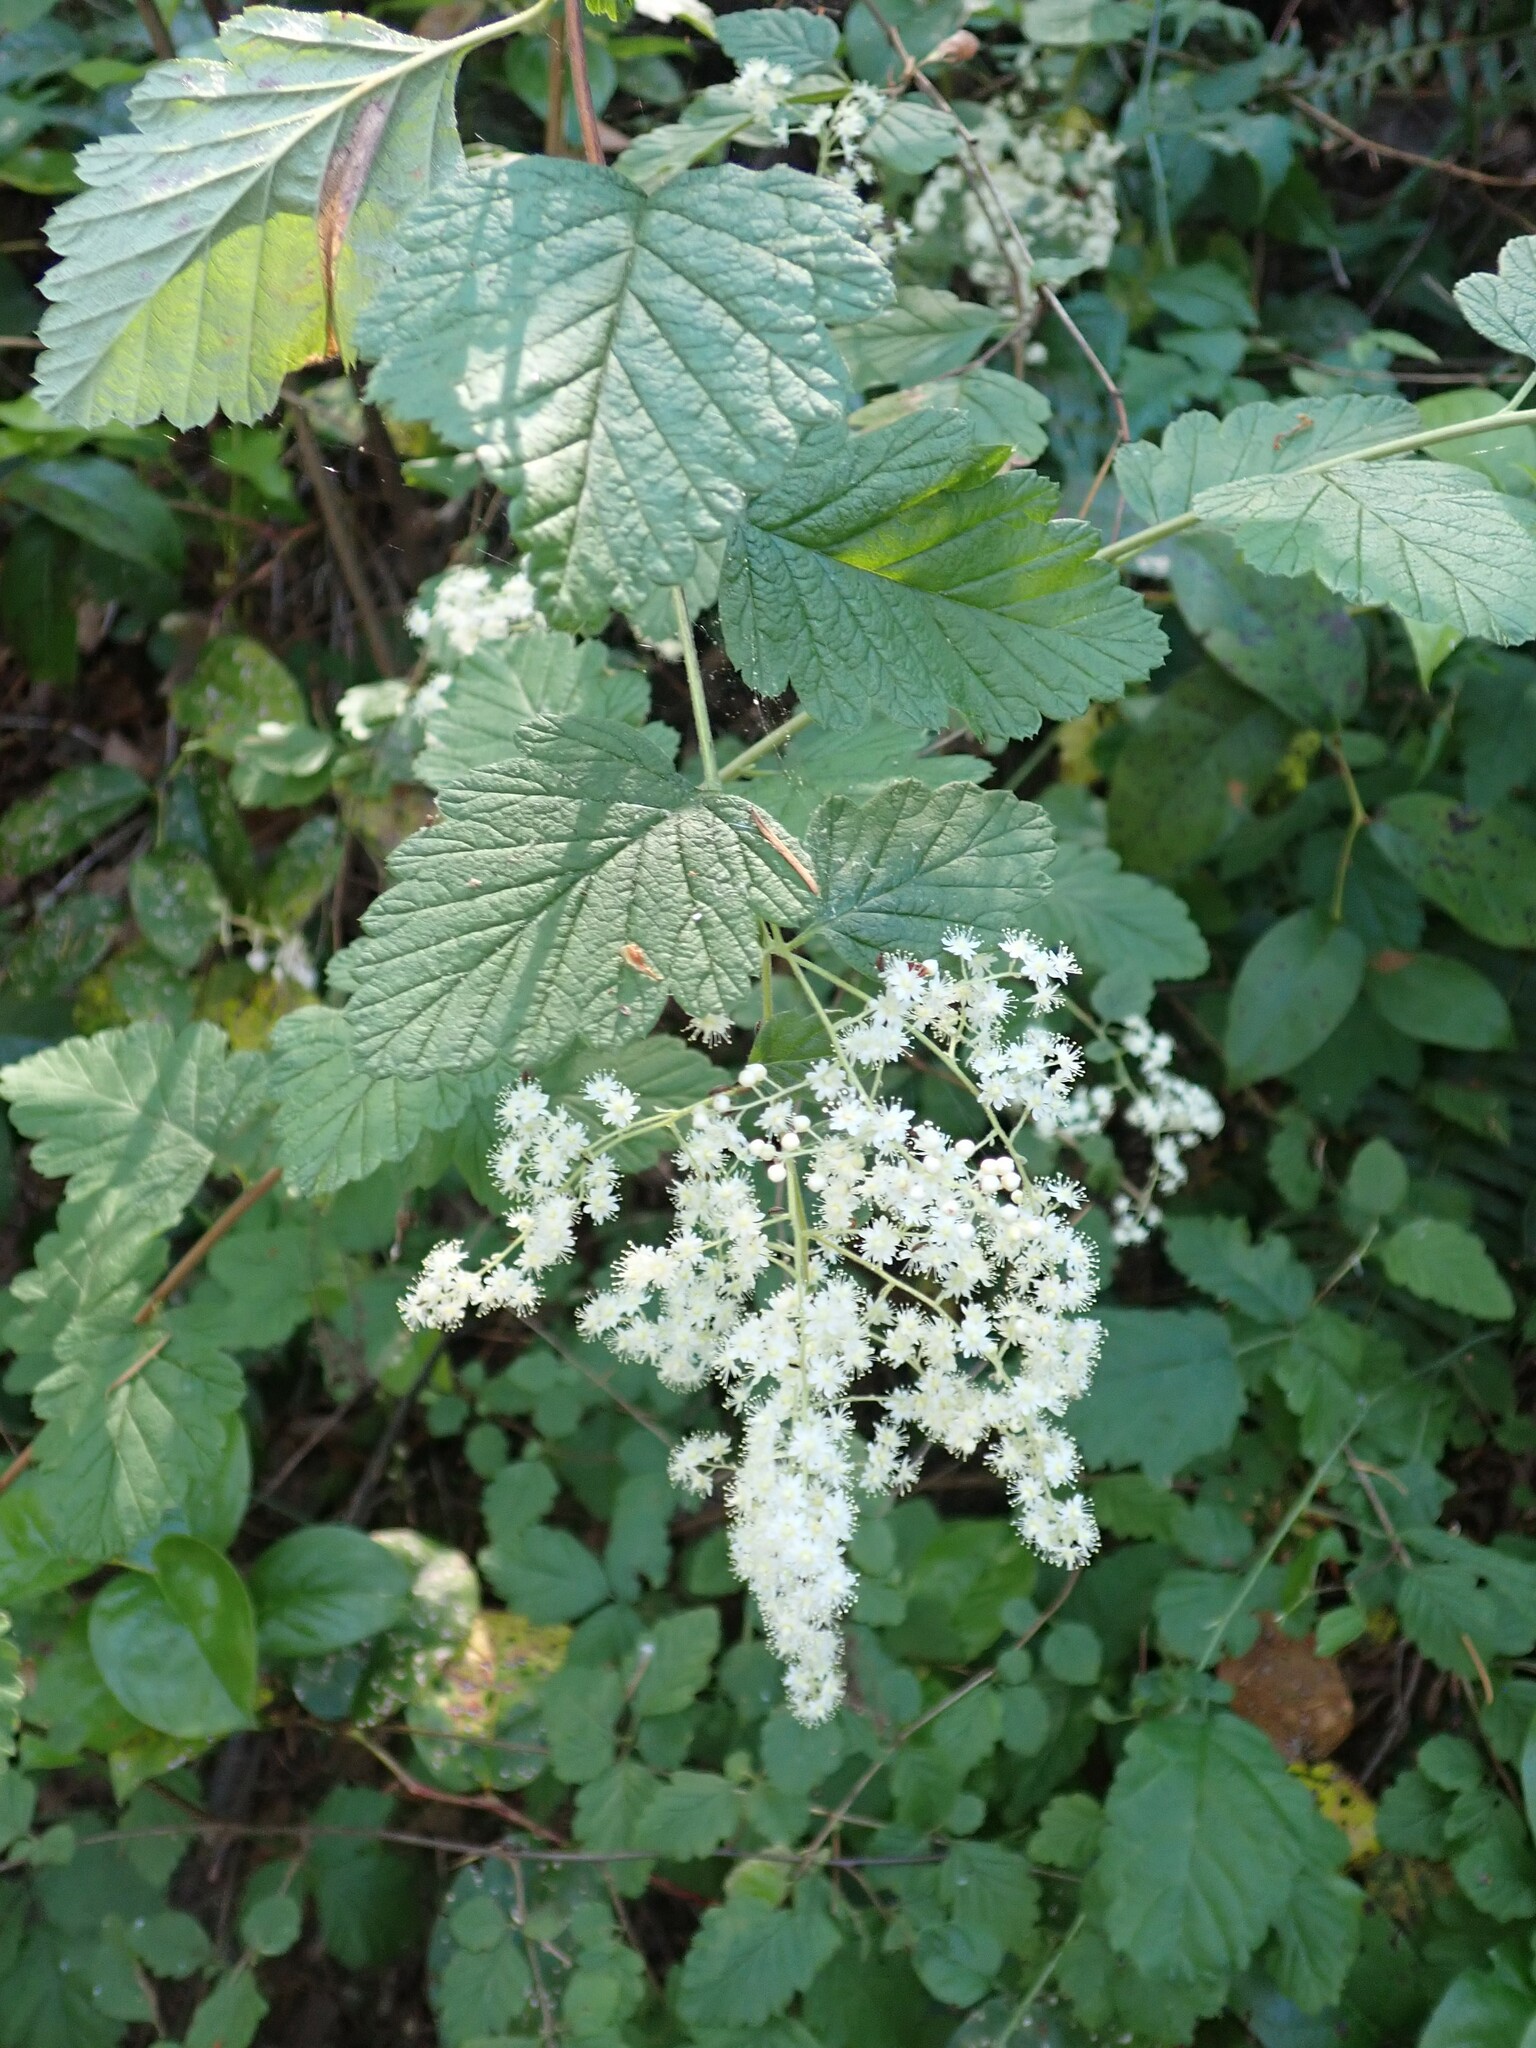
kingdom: Plantae
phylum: Tracheophyta
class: Magnoliopsida
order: Rosales
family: Rosaceae
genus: Holodiscus
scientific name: Holodiscus discolor
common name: Oceanspray
